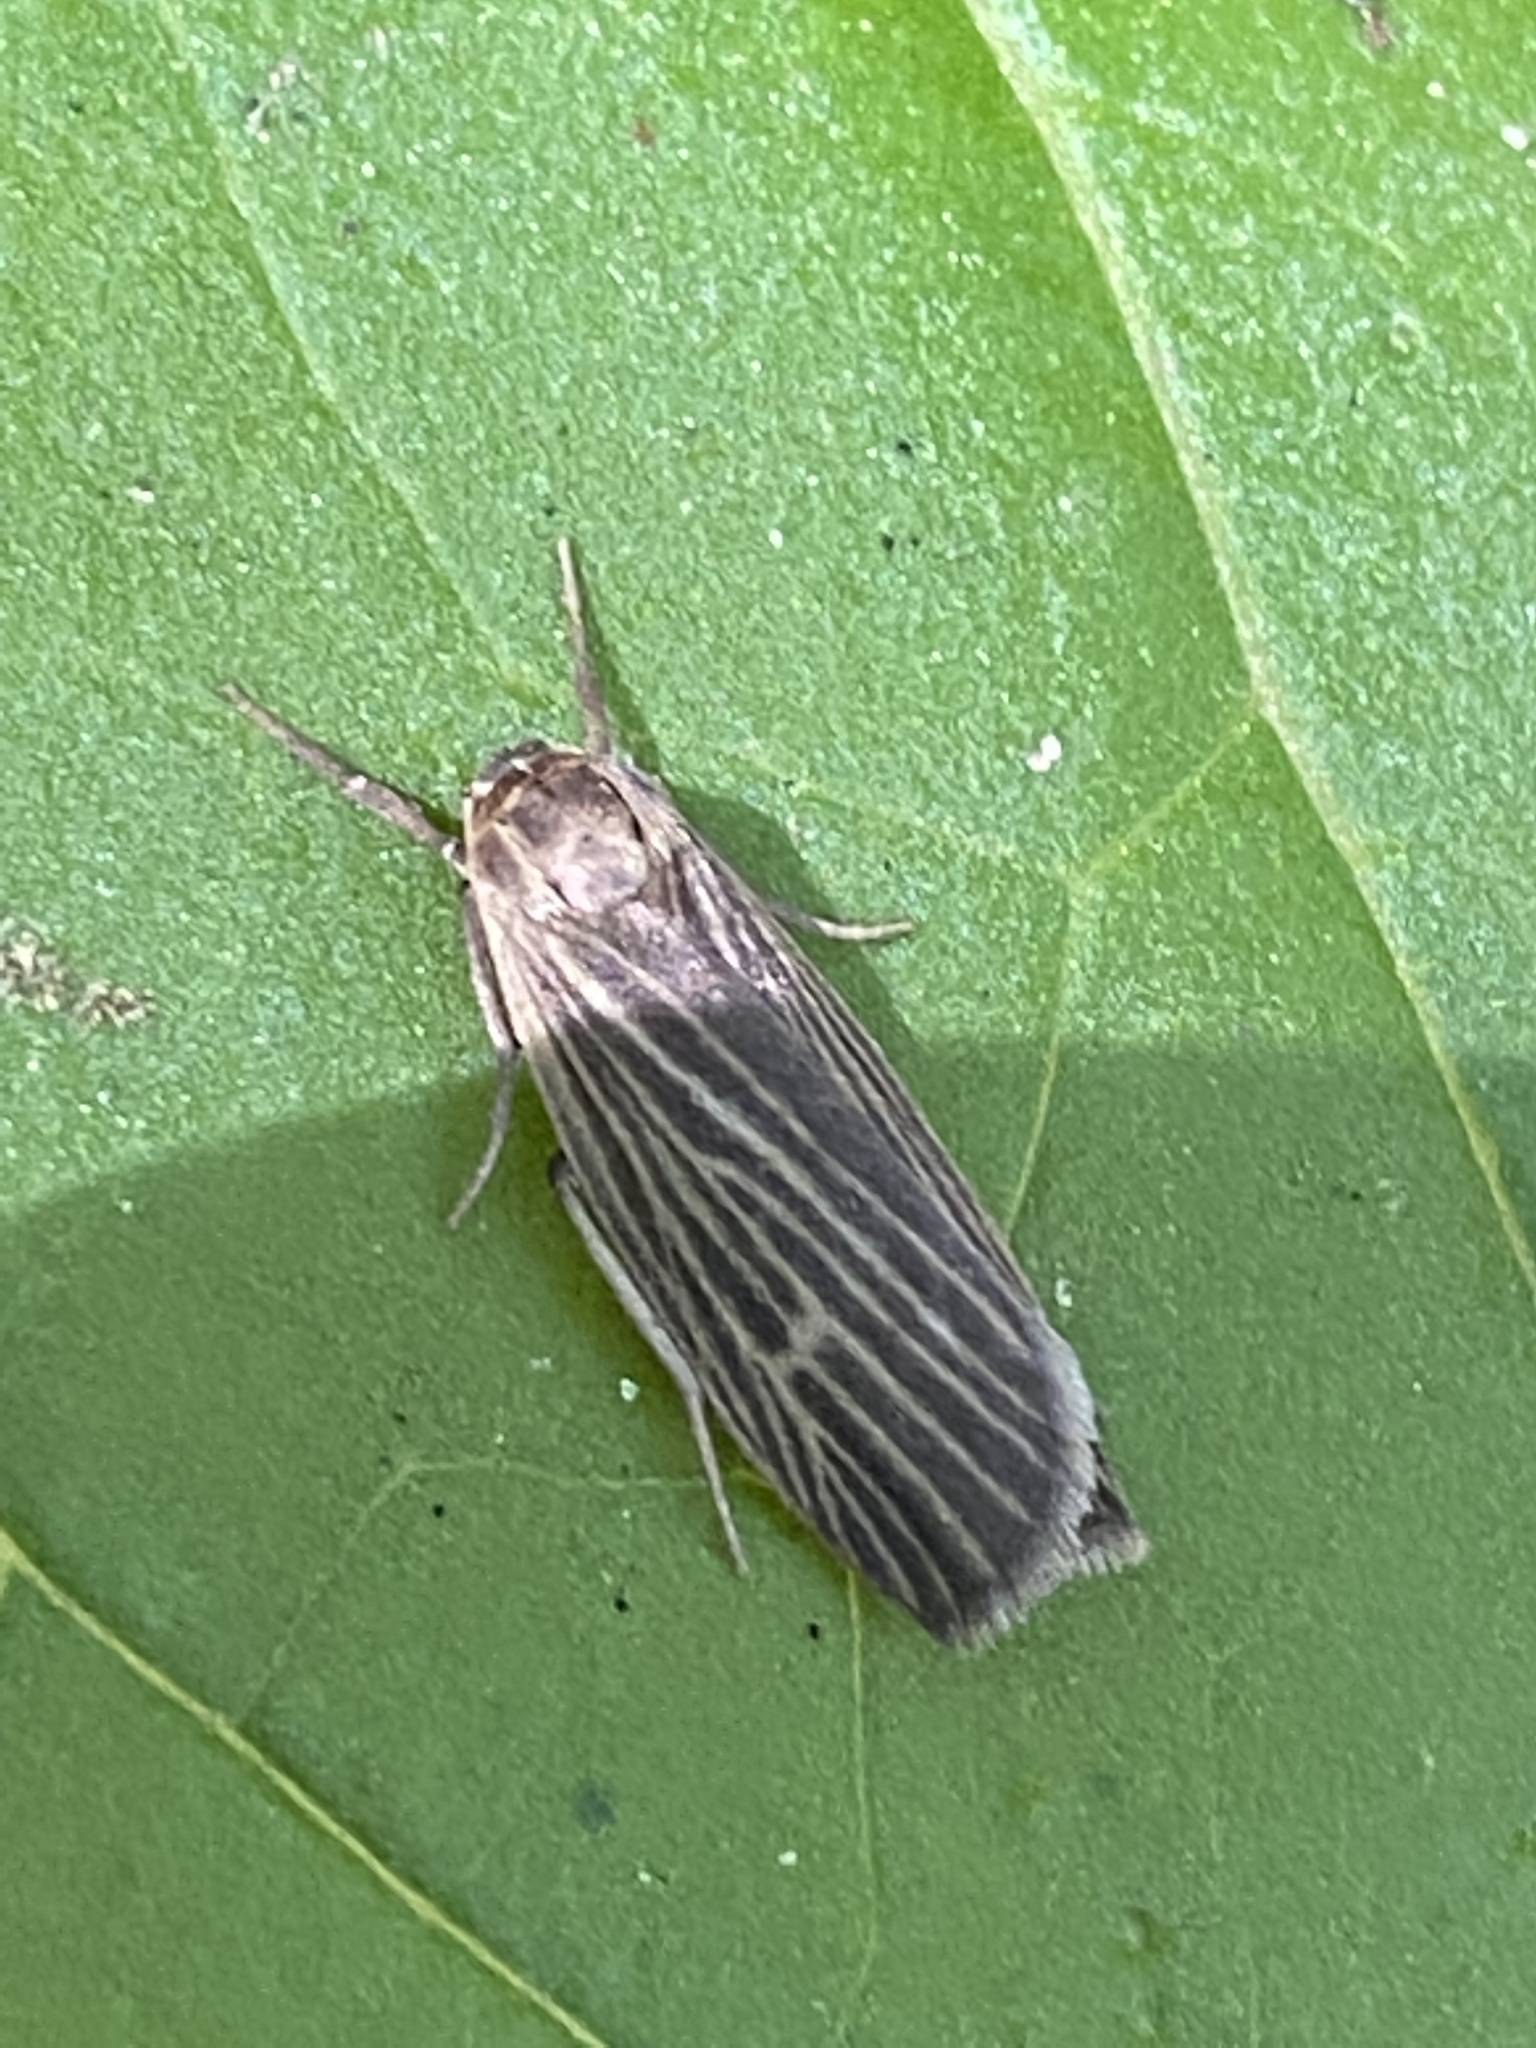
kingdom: Animalia
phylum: Arthropoda
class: Insecta
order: Lepidoptera
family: Erebidae
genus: Crambidia
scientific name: Crambidia uniformis
